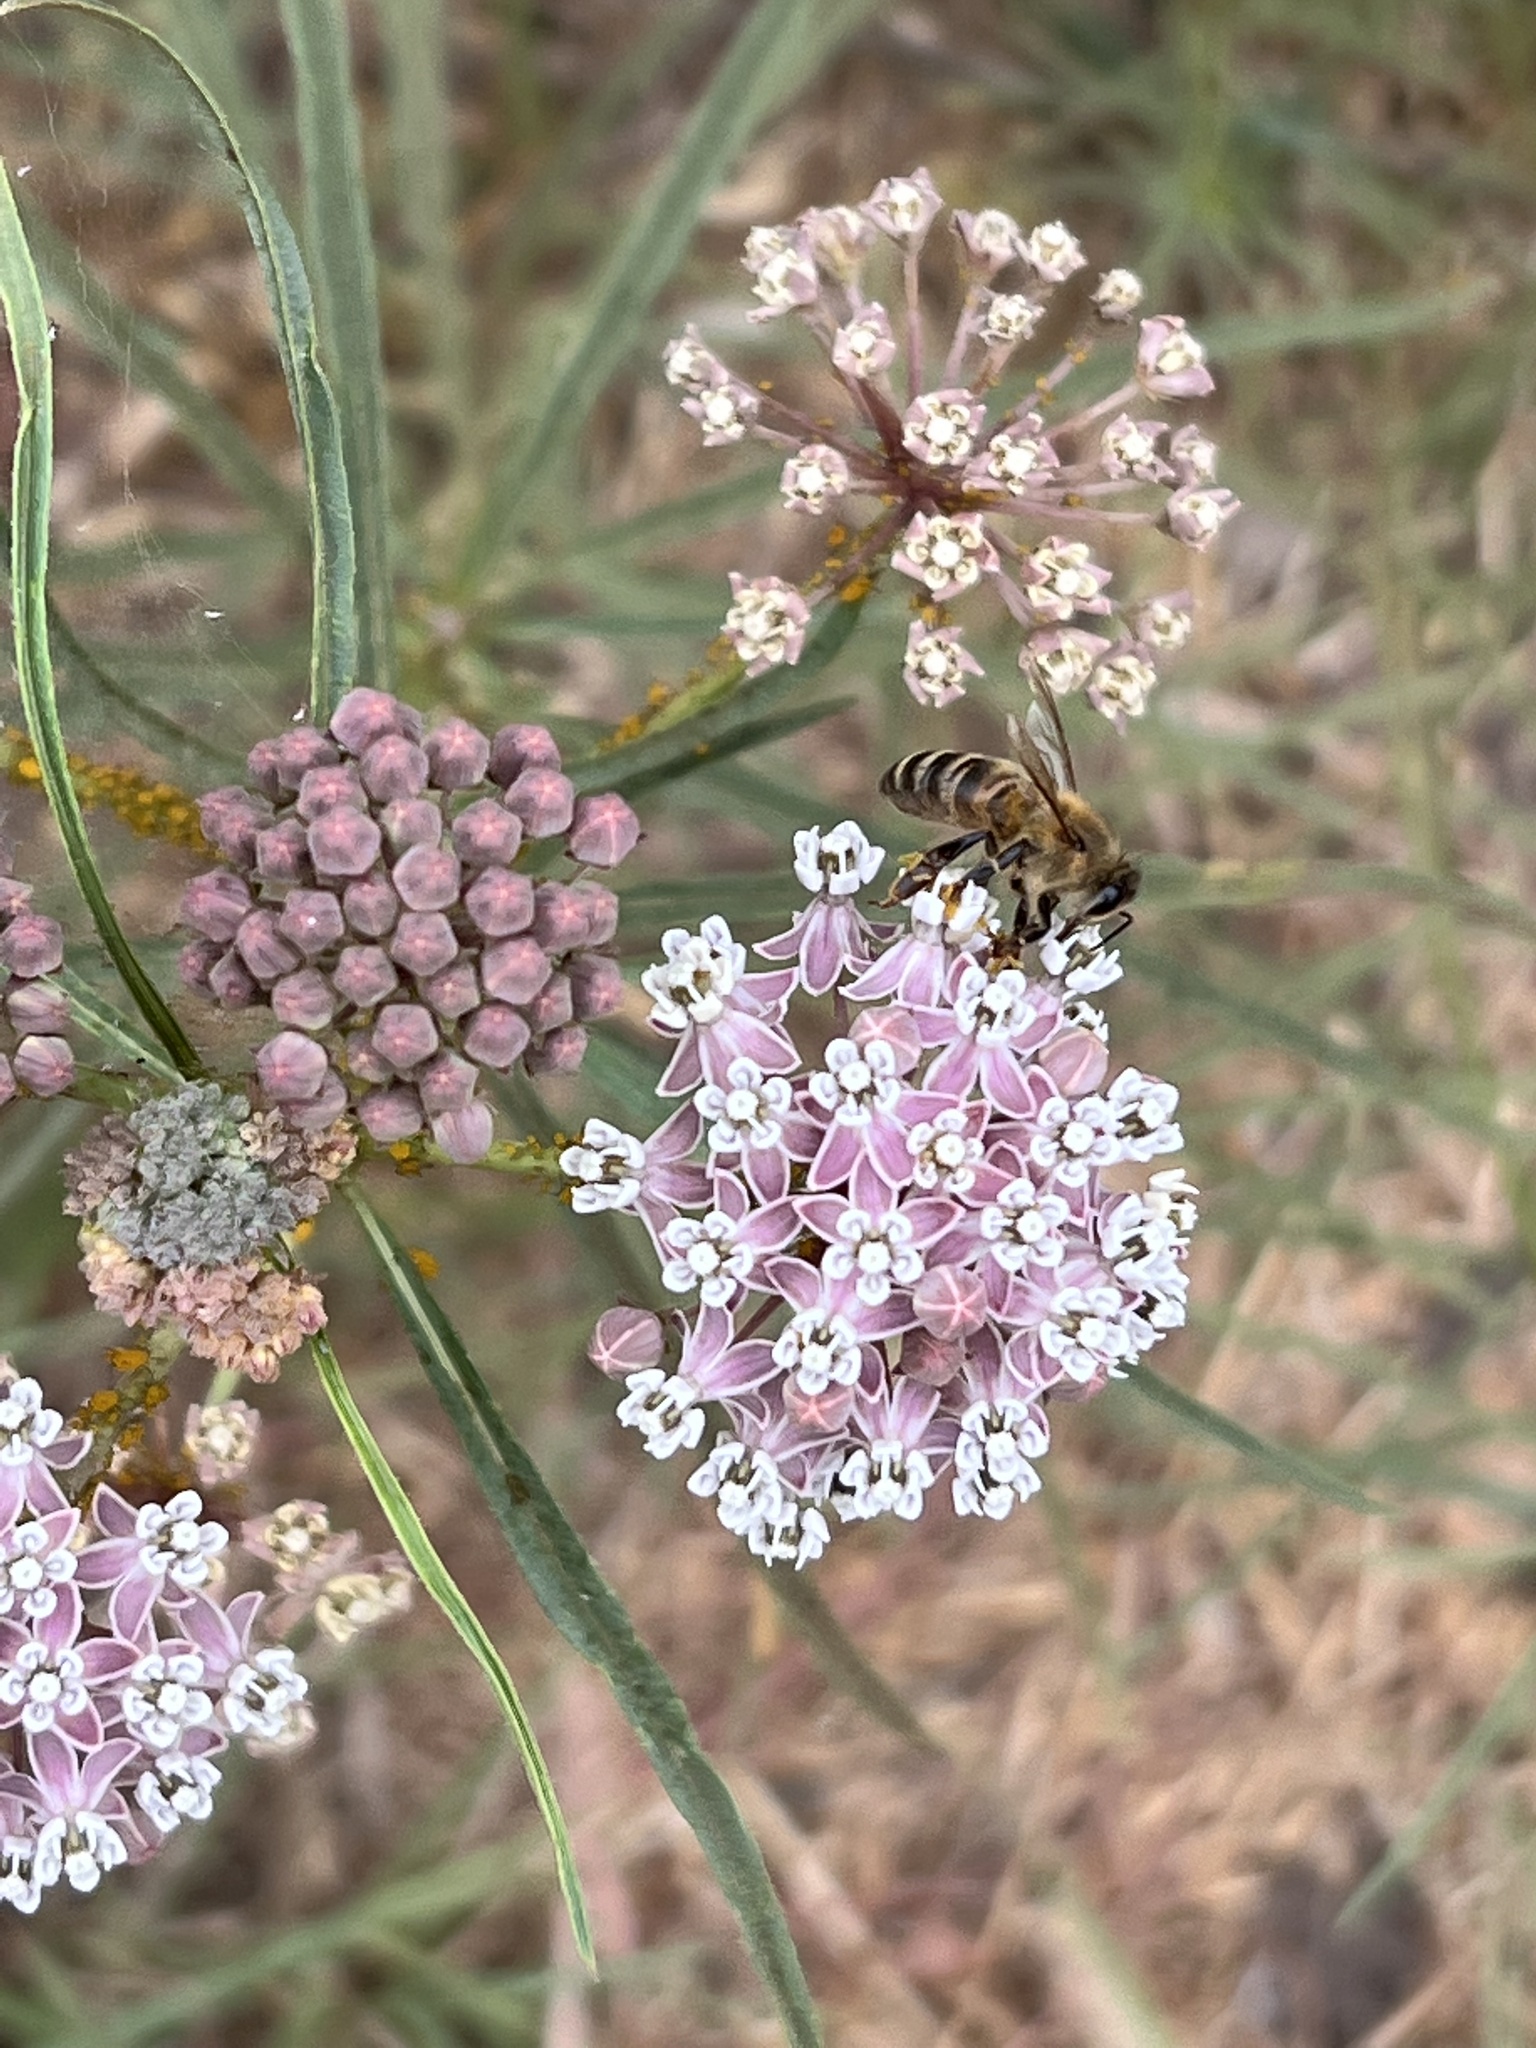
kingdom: Plantae
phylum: Tracheophyta
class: Magnoliopsida
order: Gentianales
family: Apocynaceae
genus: Asclepias
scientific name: Asclepias fascicularis
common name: Mexican milkweed
